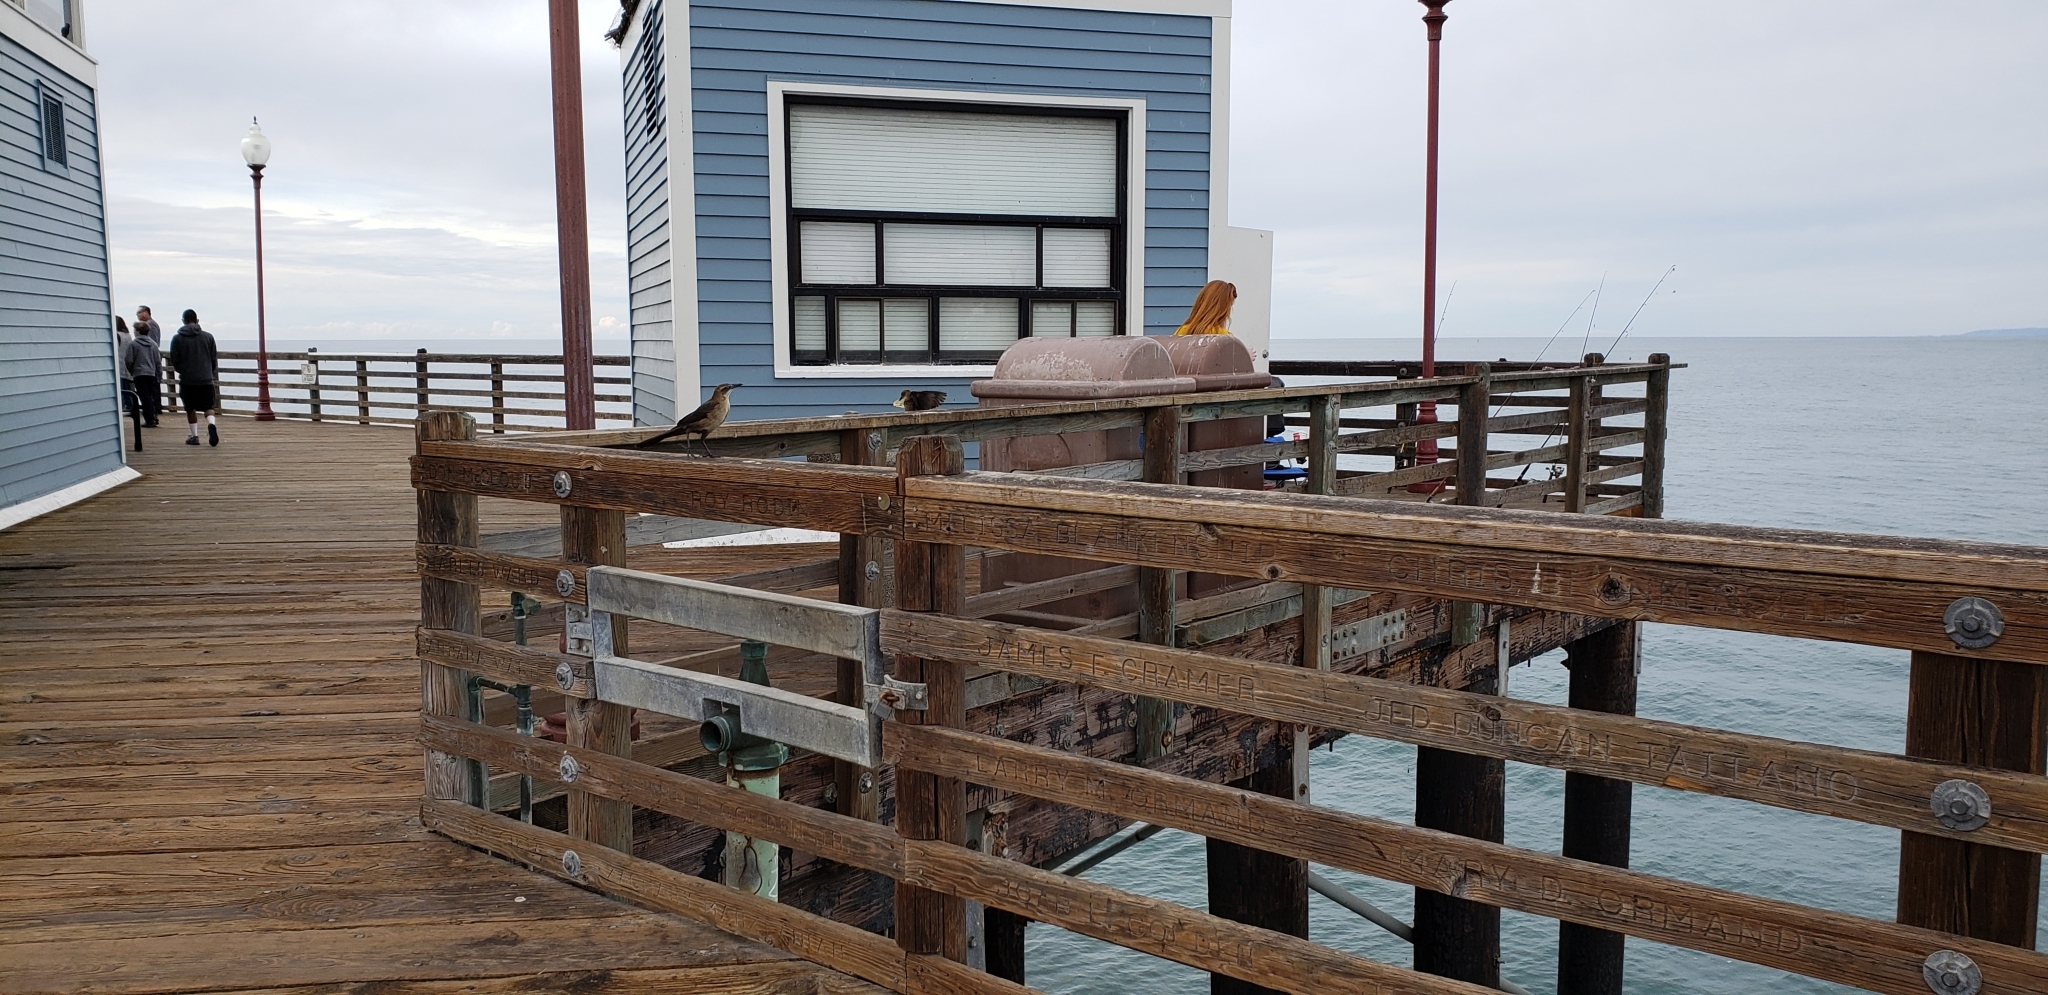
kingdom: Animalia
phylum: Chordata
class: Aves
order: Passeriformes
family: Icteridae
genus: Quiscalus
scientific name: Quiscalus mexicanus
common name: Great-tailed grackle
